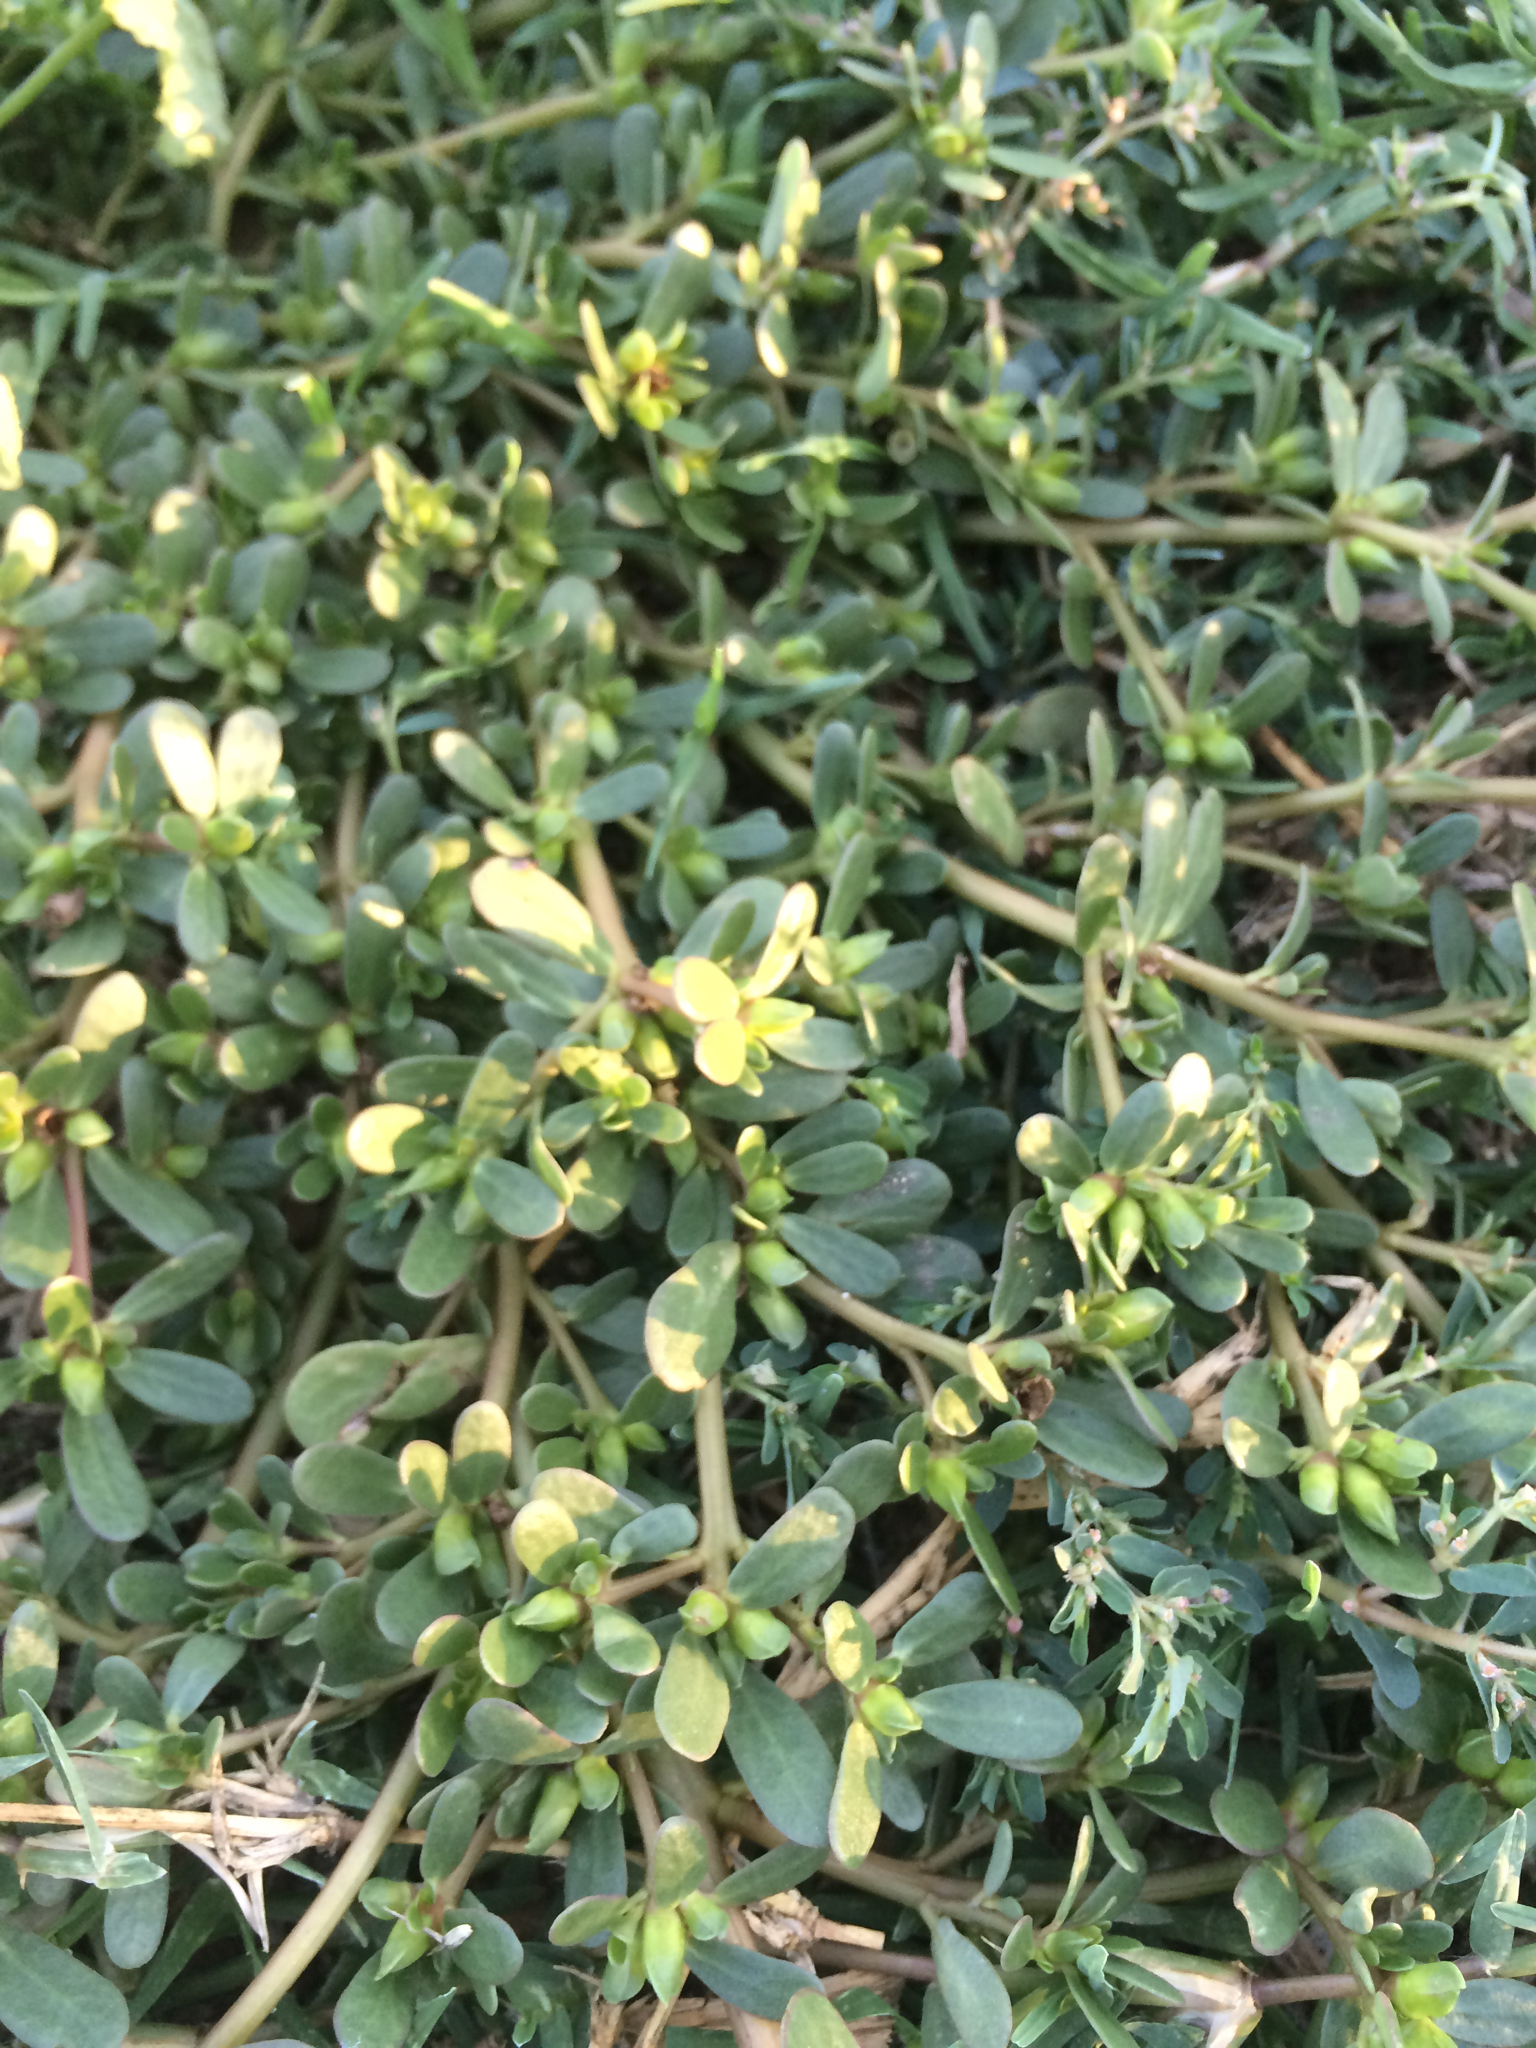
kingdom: Plantae
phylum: Tracheophyta
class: Magnoliopsida
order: Caryophyllales
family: Portulacaceae
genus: Portulaca
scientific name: Portulaca oleracea
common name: Common purslane
